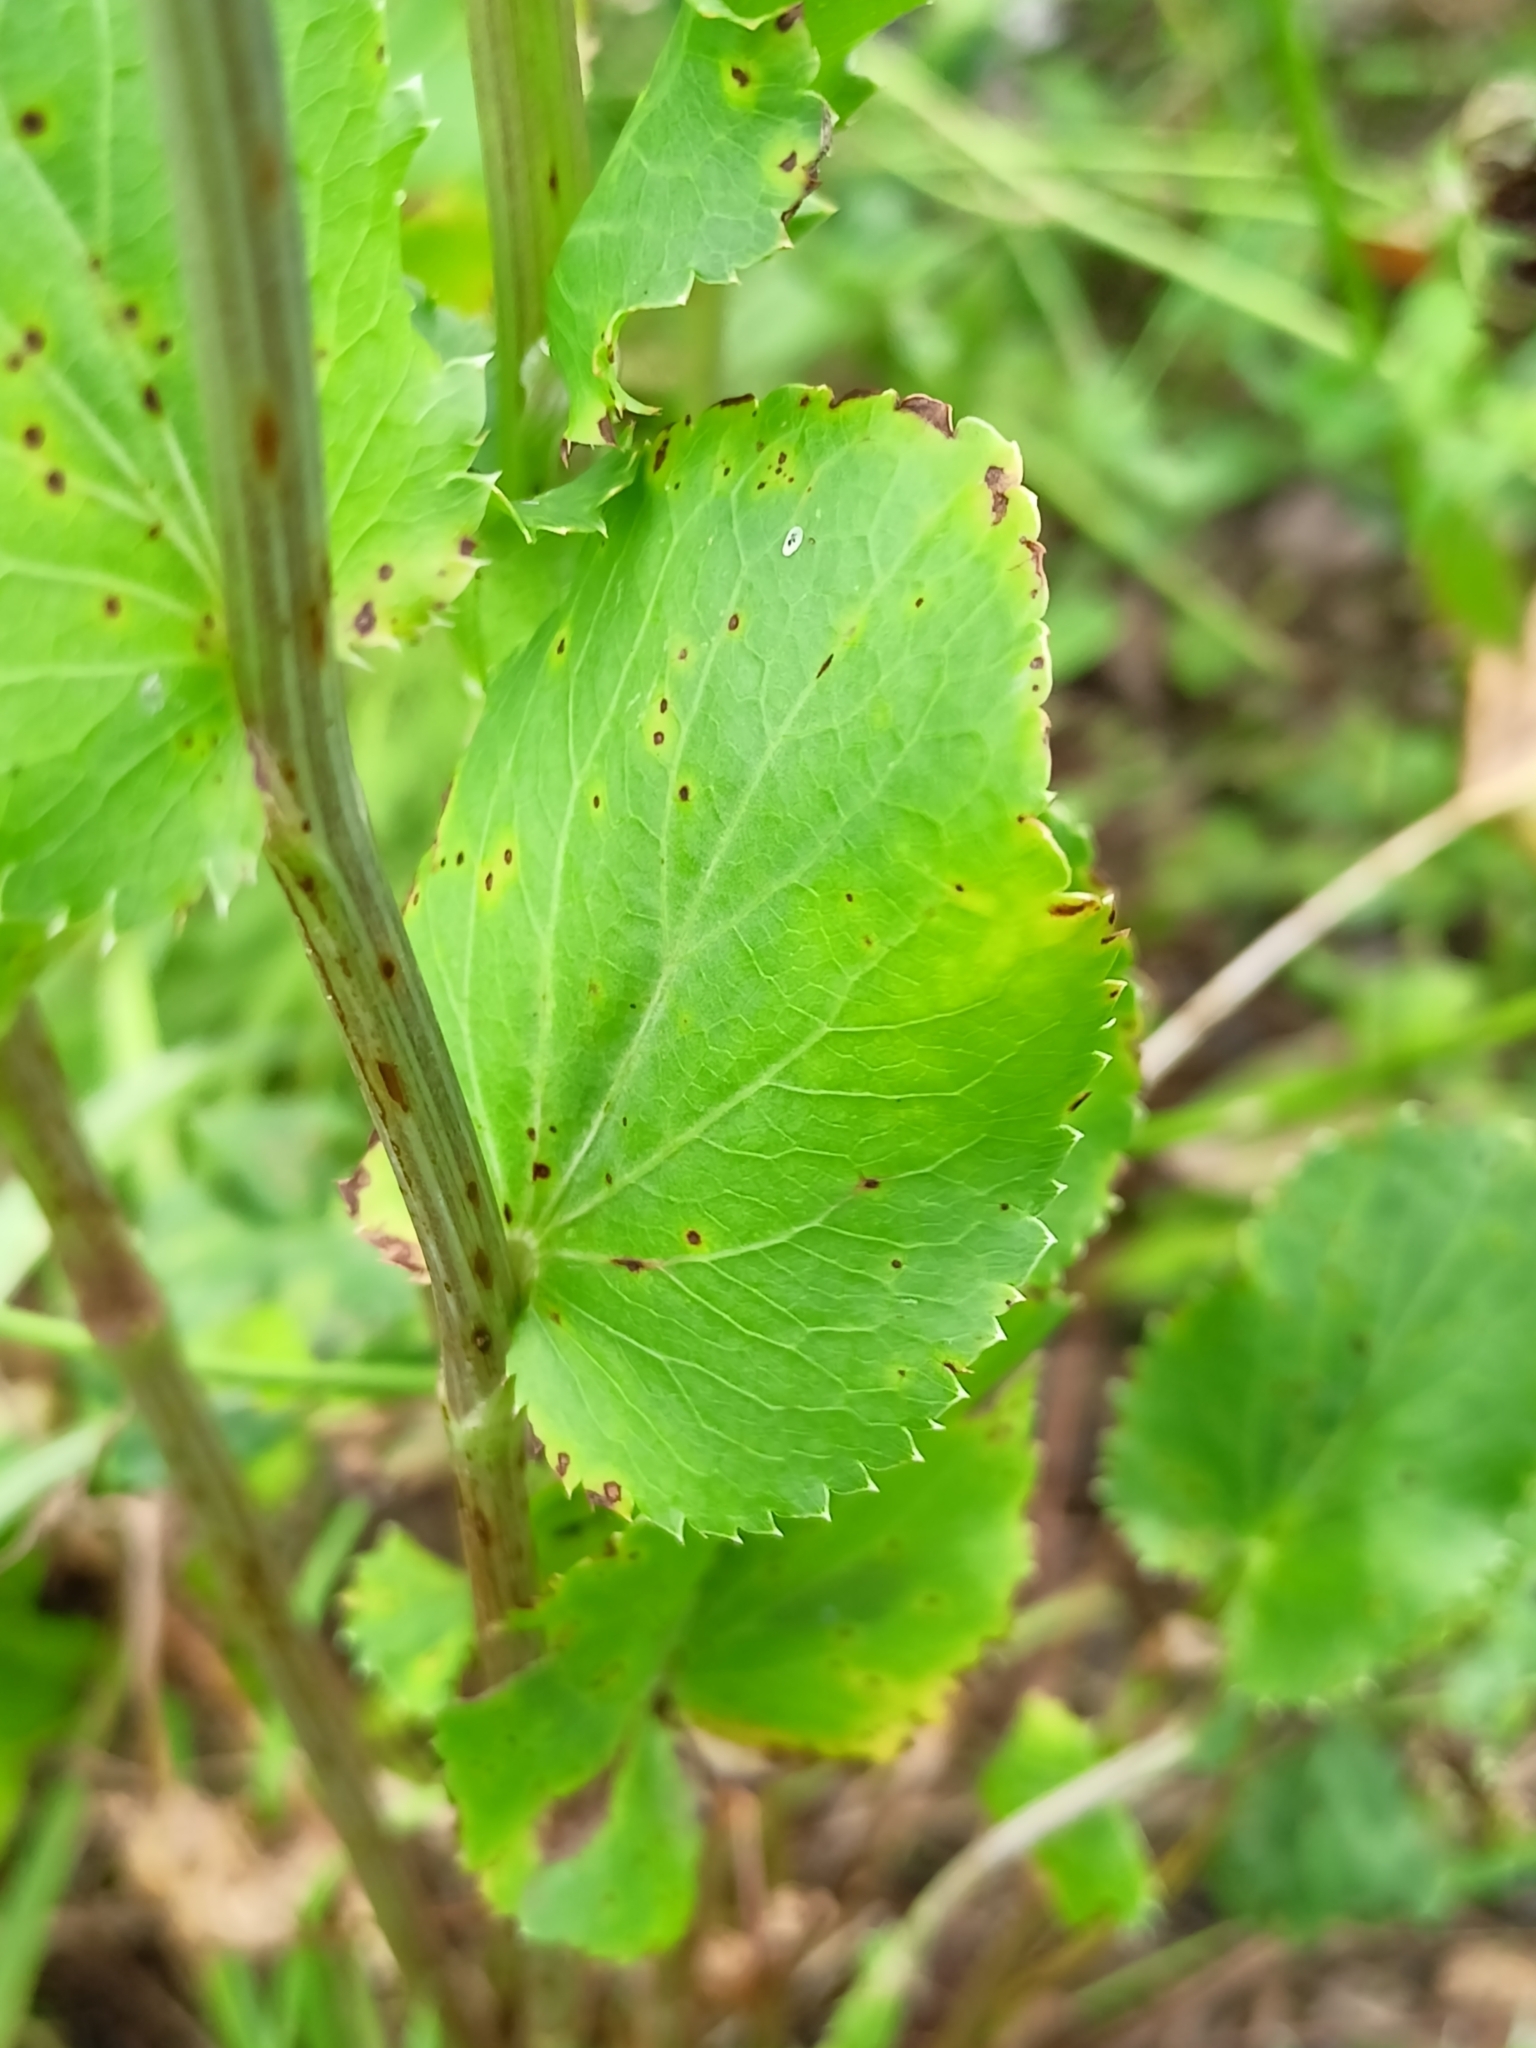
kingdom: Plantae
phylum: Tracheophyta
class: Magnoliopsida
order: Apiales
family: Apiaceae
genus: Eryngium
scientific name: Eryngium planum
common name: Blue eryngo
